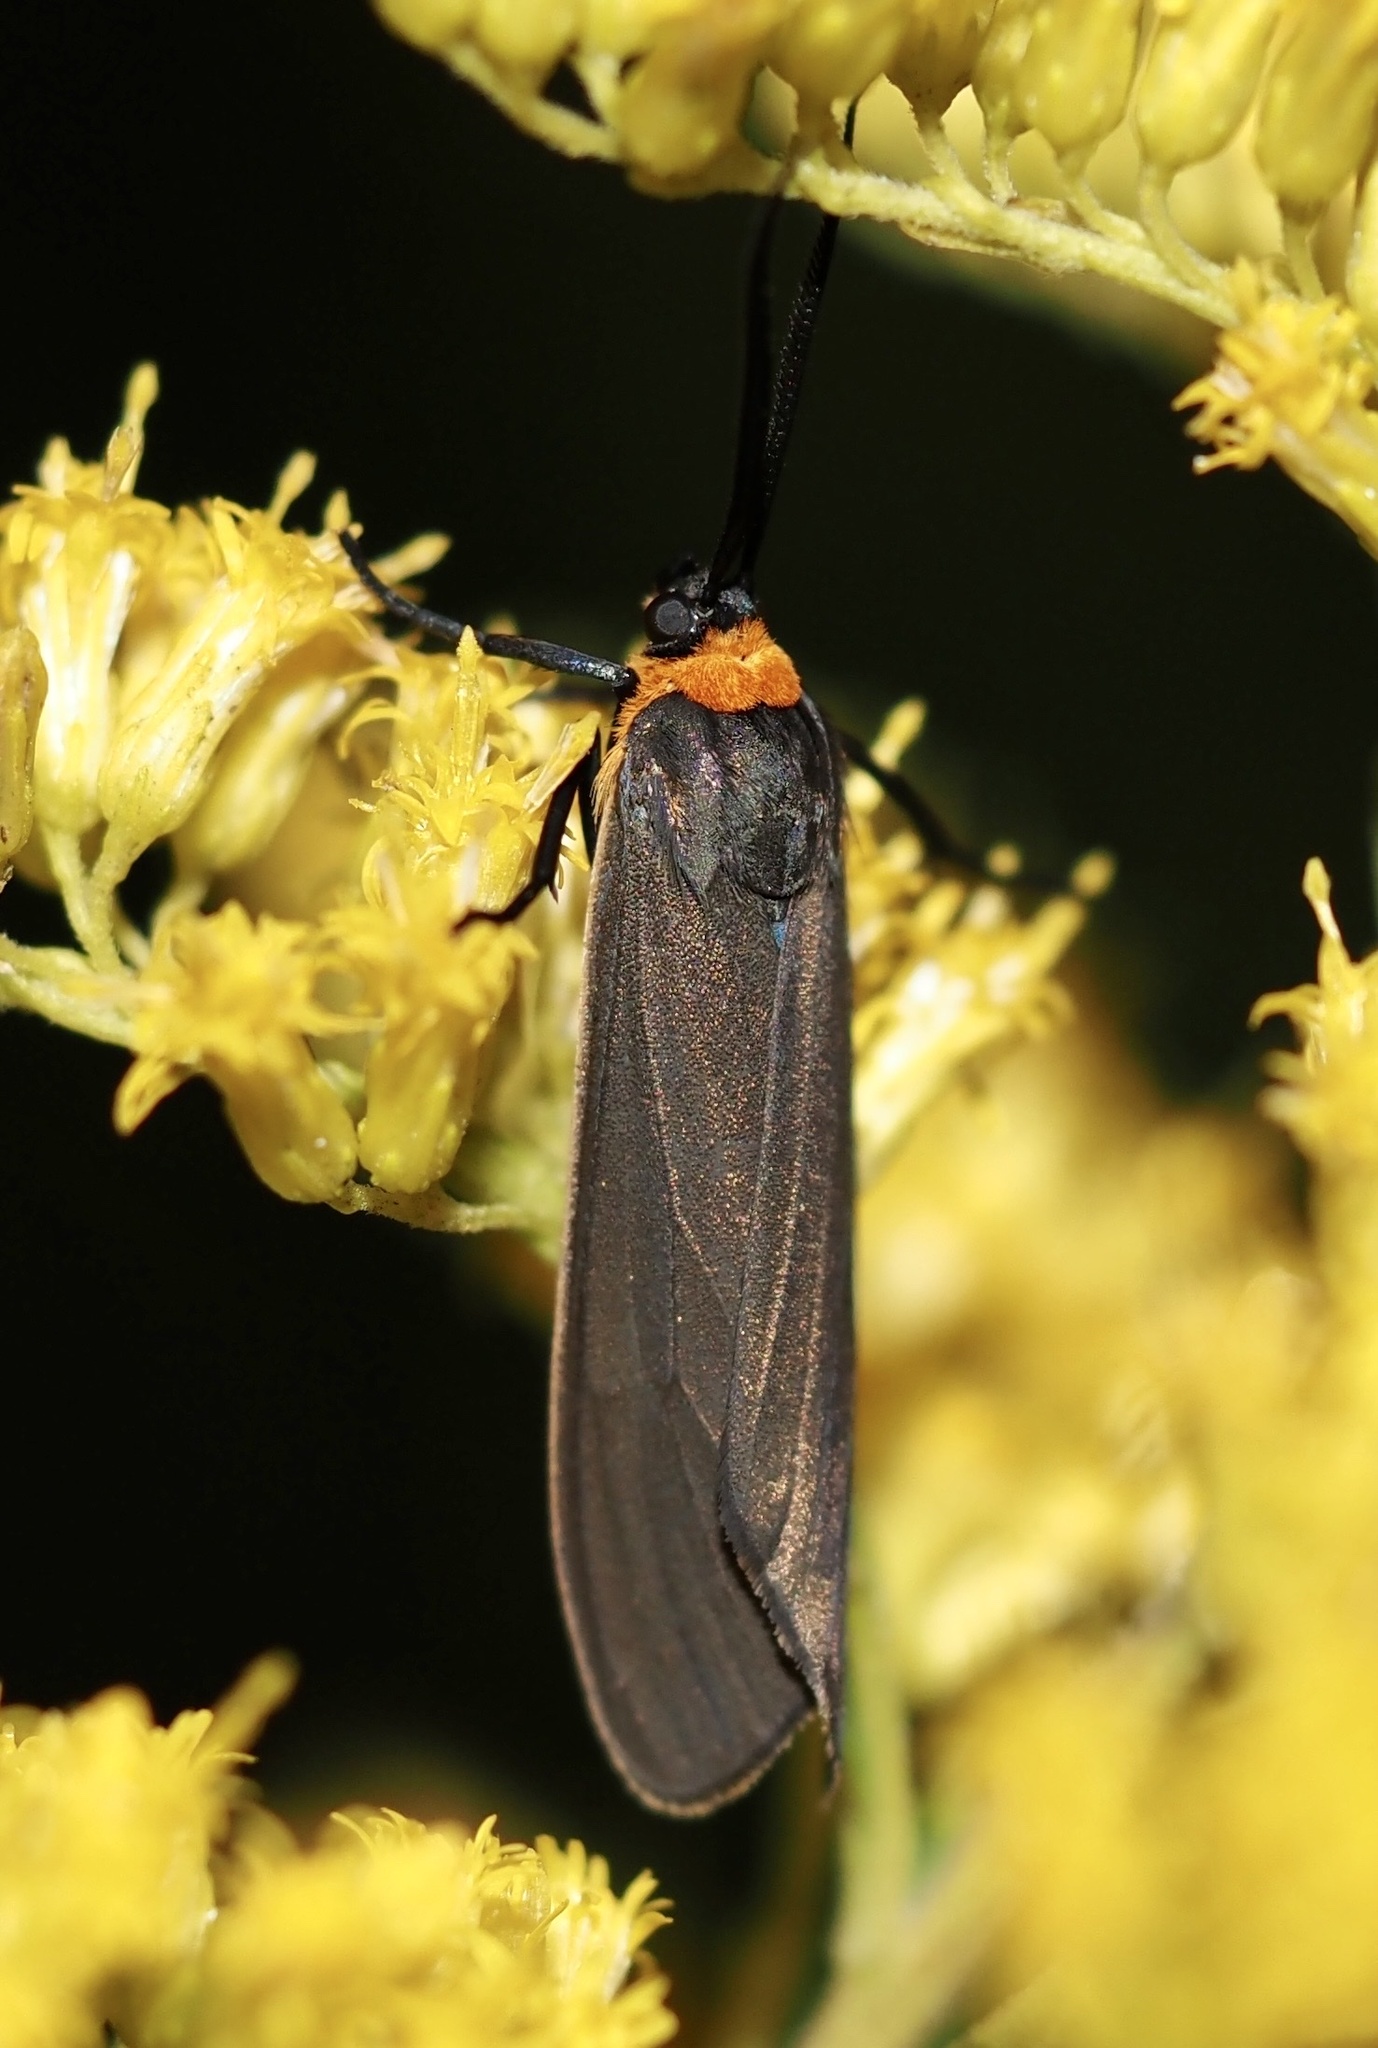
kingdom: Animalia
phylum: Arthropoda
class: Insecta
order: Lepidoptera
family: Erebidae
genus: Cisseps
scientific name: Cisseps fulvicollis
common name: Yellow-collared scape moth
